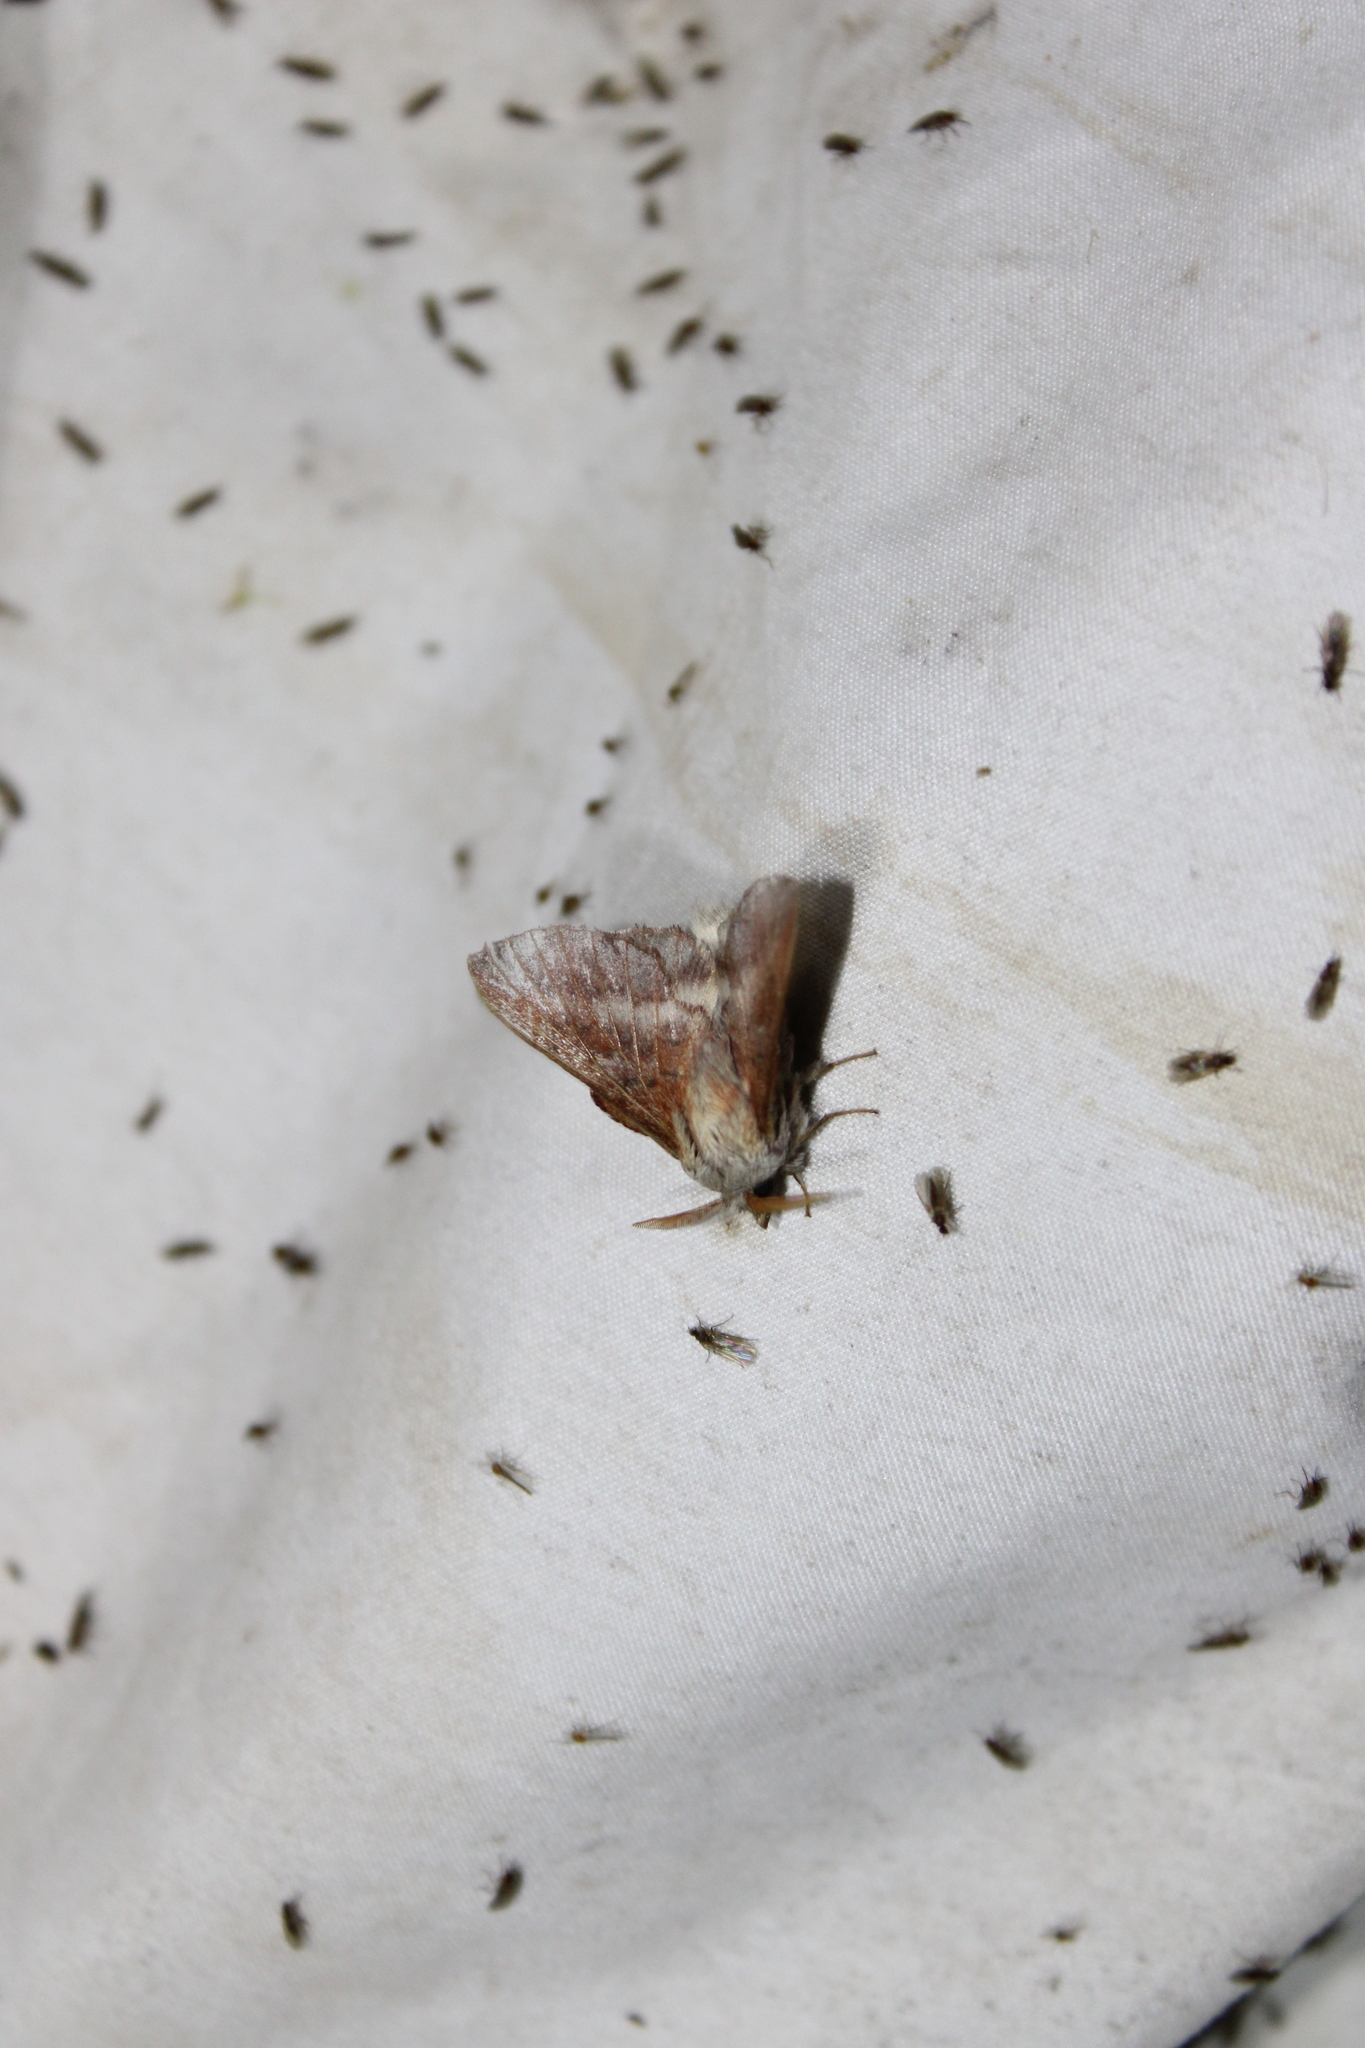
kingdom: Animalia
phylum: Arthropoda
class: Insecta
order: Lepidoptera
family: Lasiocampidae
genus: Phyllodesma
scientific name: Phyllodesma americana
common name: American lappet moth
